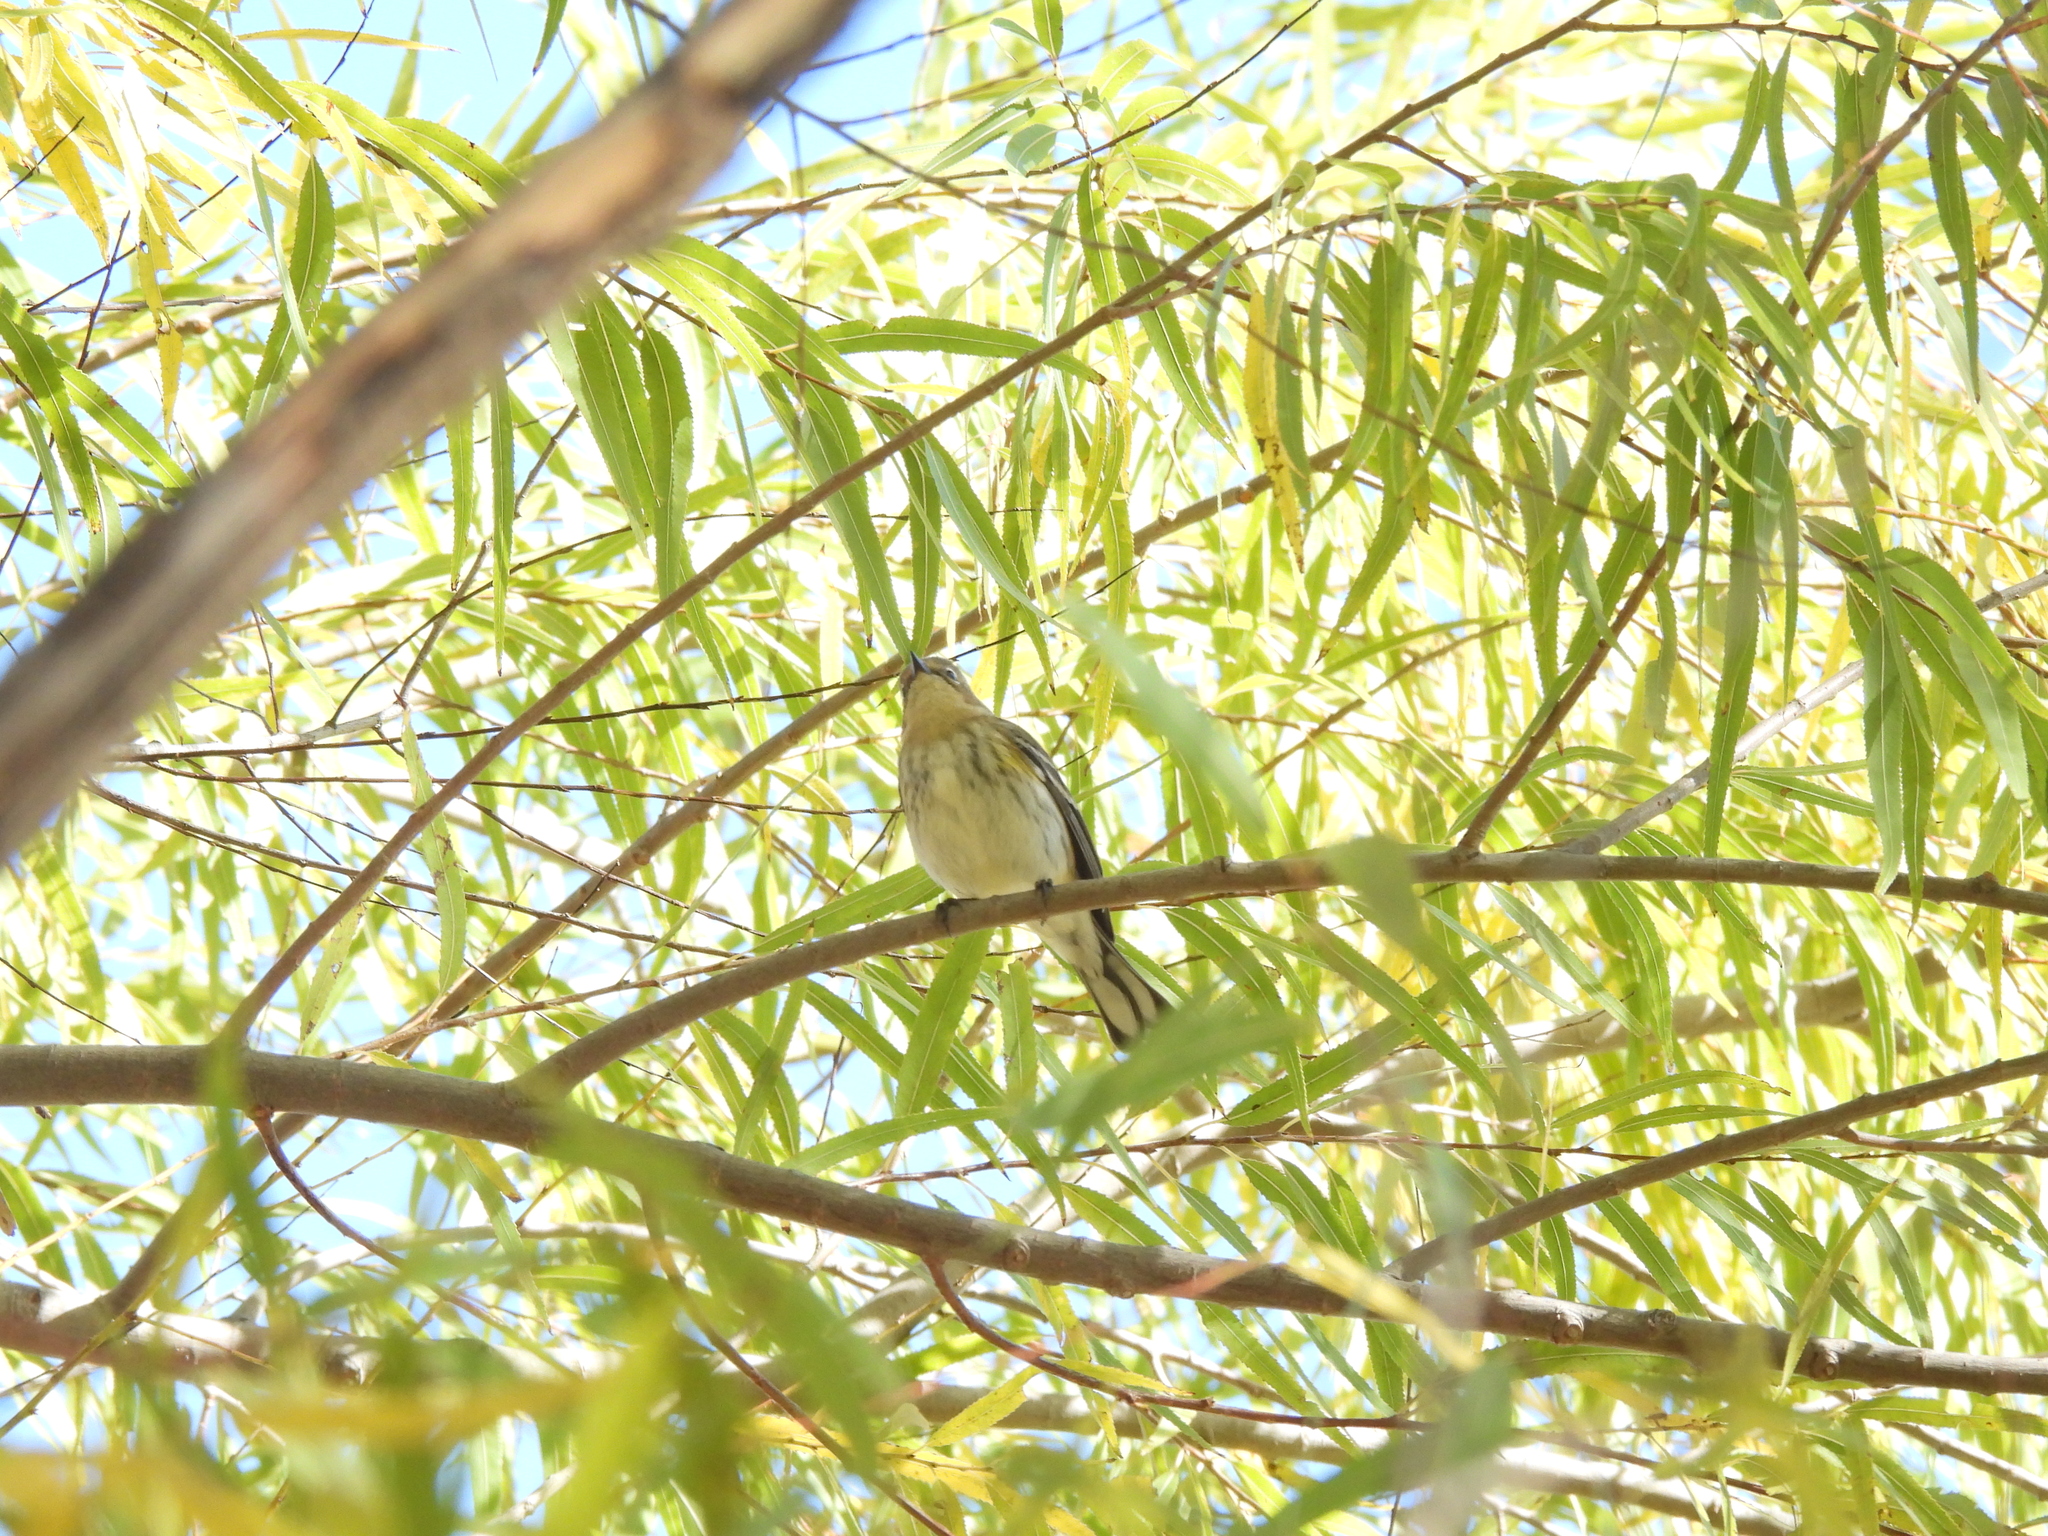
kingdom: Animalia
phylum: Chordata
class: Aves
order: Passeriformes
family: Parulidae
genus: Setophaga
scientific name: Setophaga coronata
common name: Myrtle warbler
